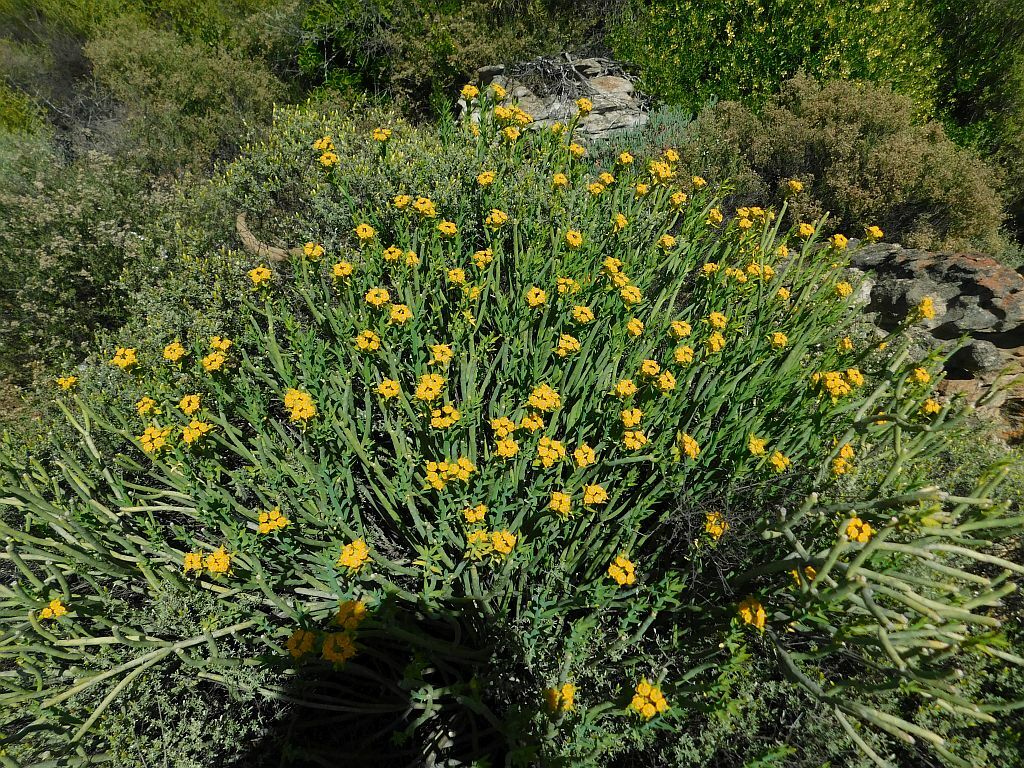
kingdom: Plantae
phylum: Tracheophyta
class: Magnoliopsida
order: Malpighiales
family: Euphorbiaceae
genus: Euphorbia
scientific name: Euphorbia mauritanica
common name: Jackal's-food
